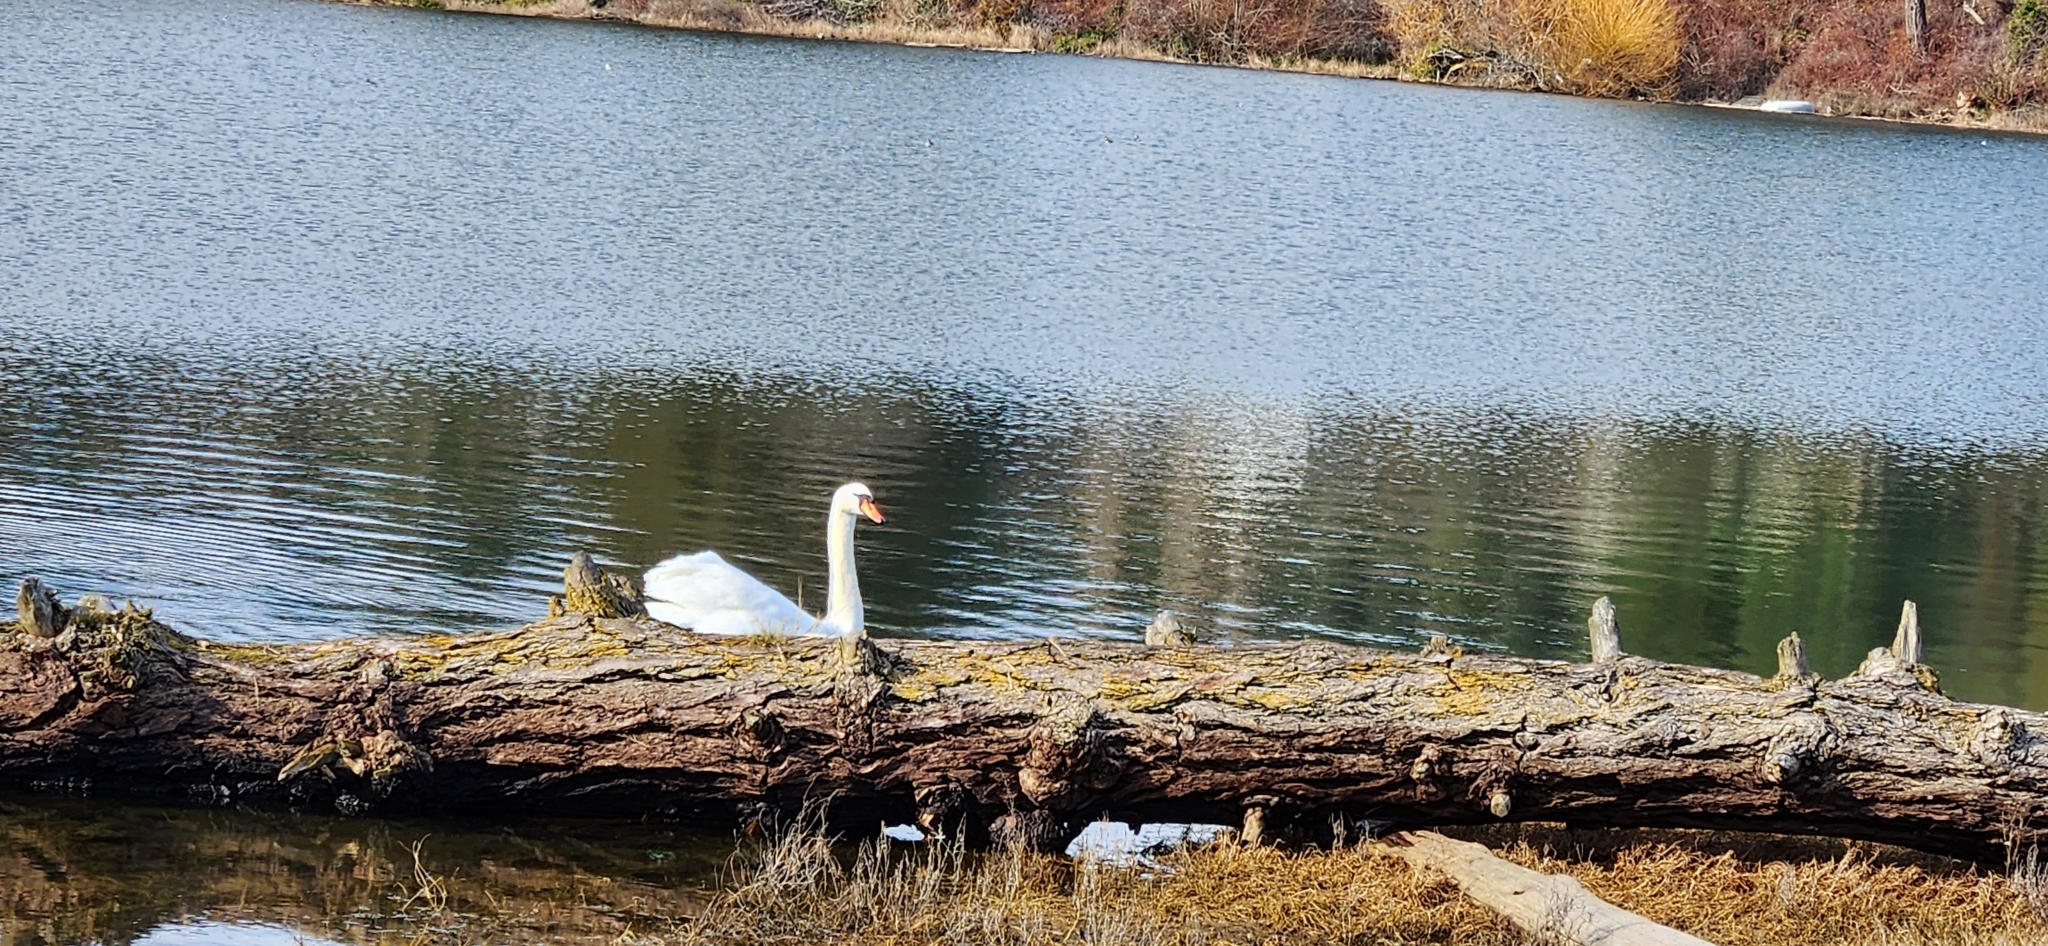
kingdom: Animalia
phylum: Chordata
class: Aves
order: Anseriformes
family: Anatidae
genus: Cygnus
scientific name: Cygnus olor
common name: Mute swan
